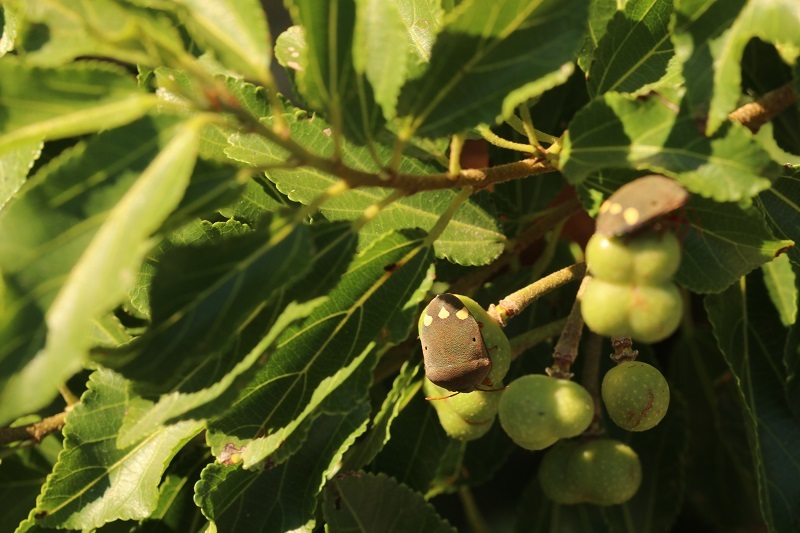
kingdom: Animalia
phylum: Arthropoda
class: Insecta
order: Hemiptera
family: Scutelleridae
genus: Solenosthedium
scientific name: Solenosthedium
